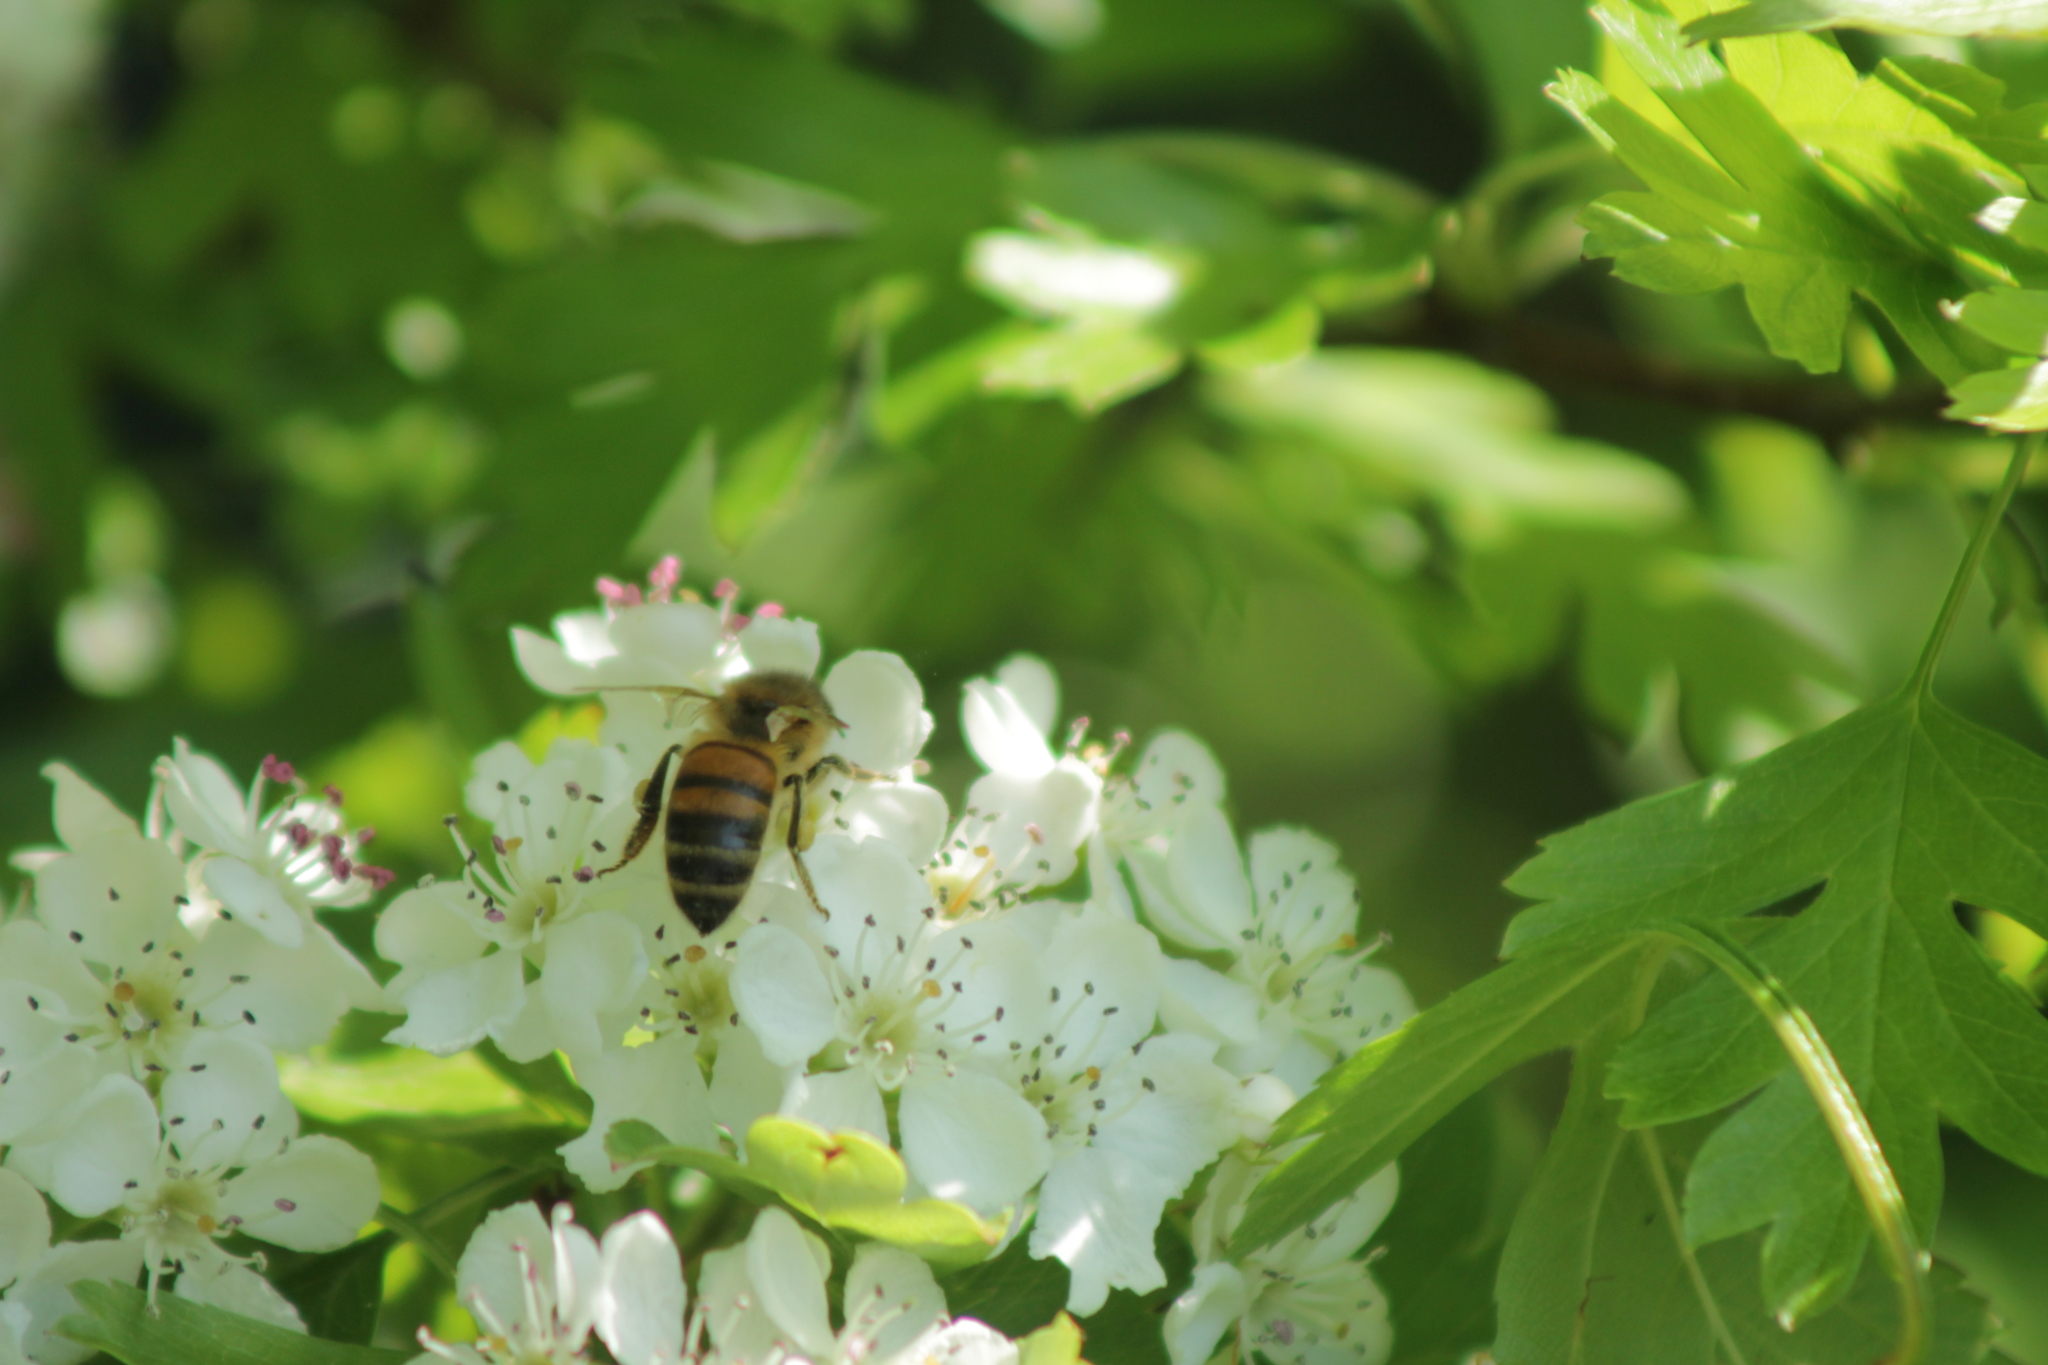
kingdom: Animalia
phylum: Arthropoda
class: Insecta
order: Hymenoptera
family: Apidae
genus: Apis
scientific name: Apis mellifera
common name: Honey bee
